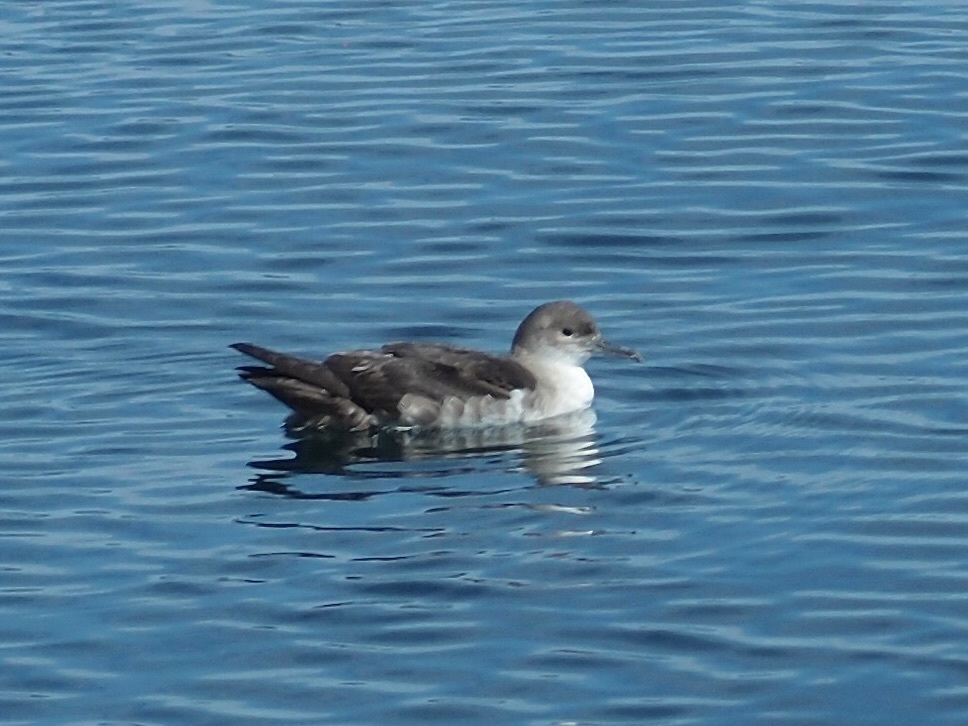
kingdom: Animalia
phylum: Chordata
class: Aves
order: Procellariiformes
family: Procellariidae
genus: Puffinus
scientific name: Puffinus opisthomelas
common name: Black-vented shearwater
